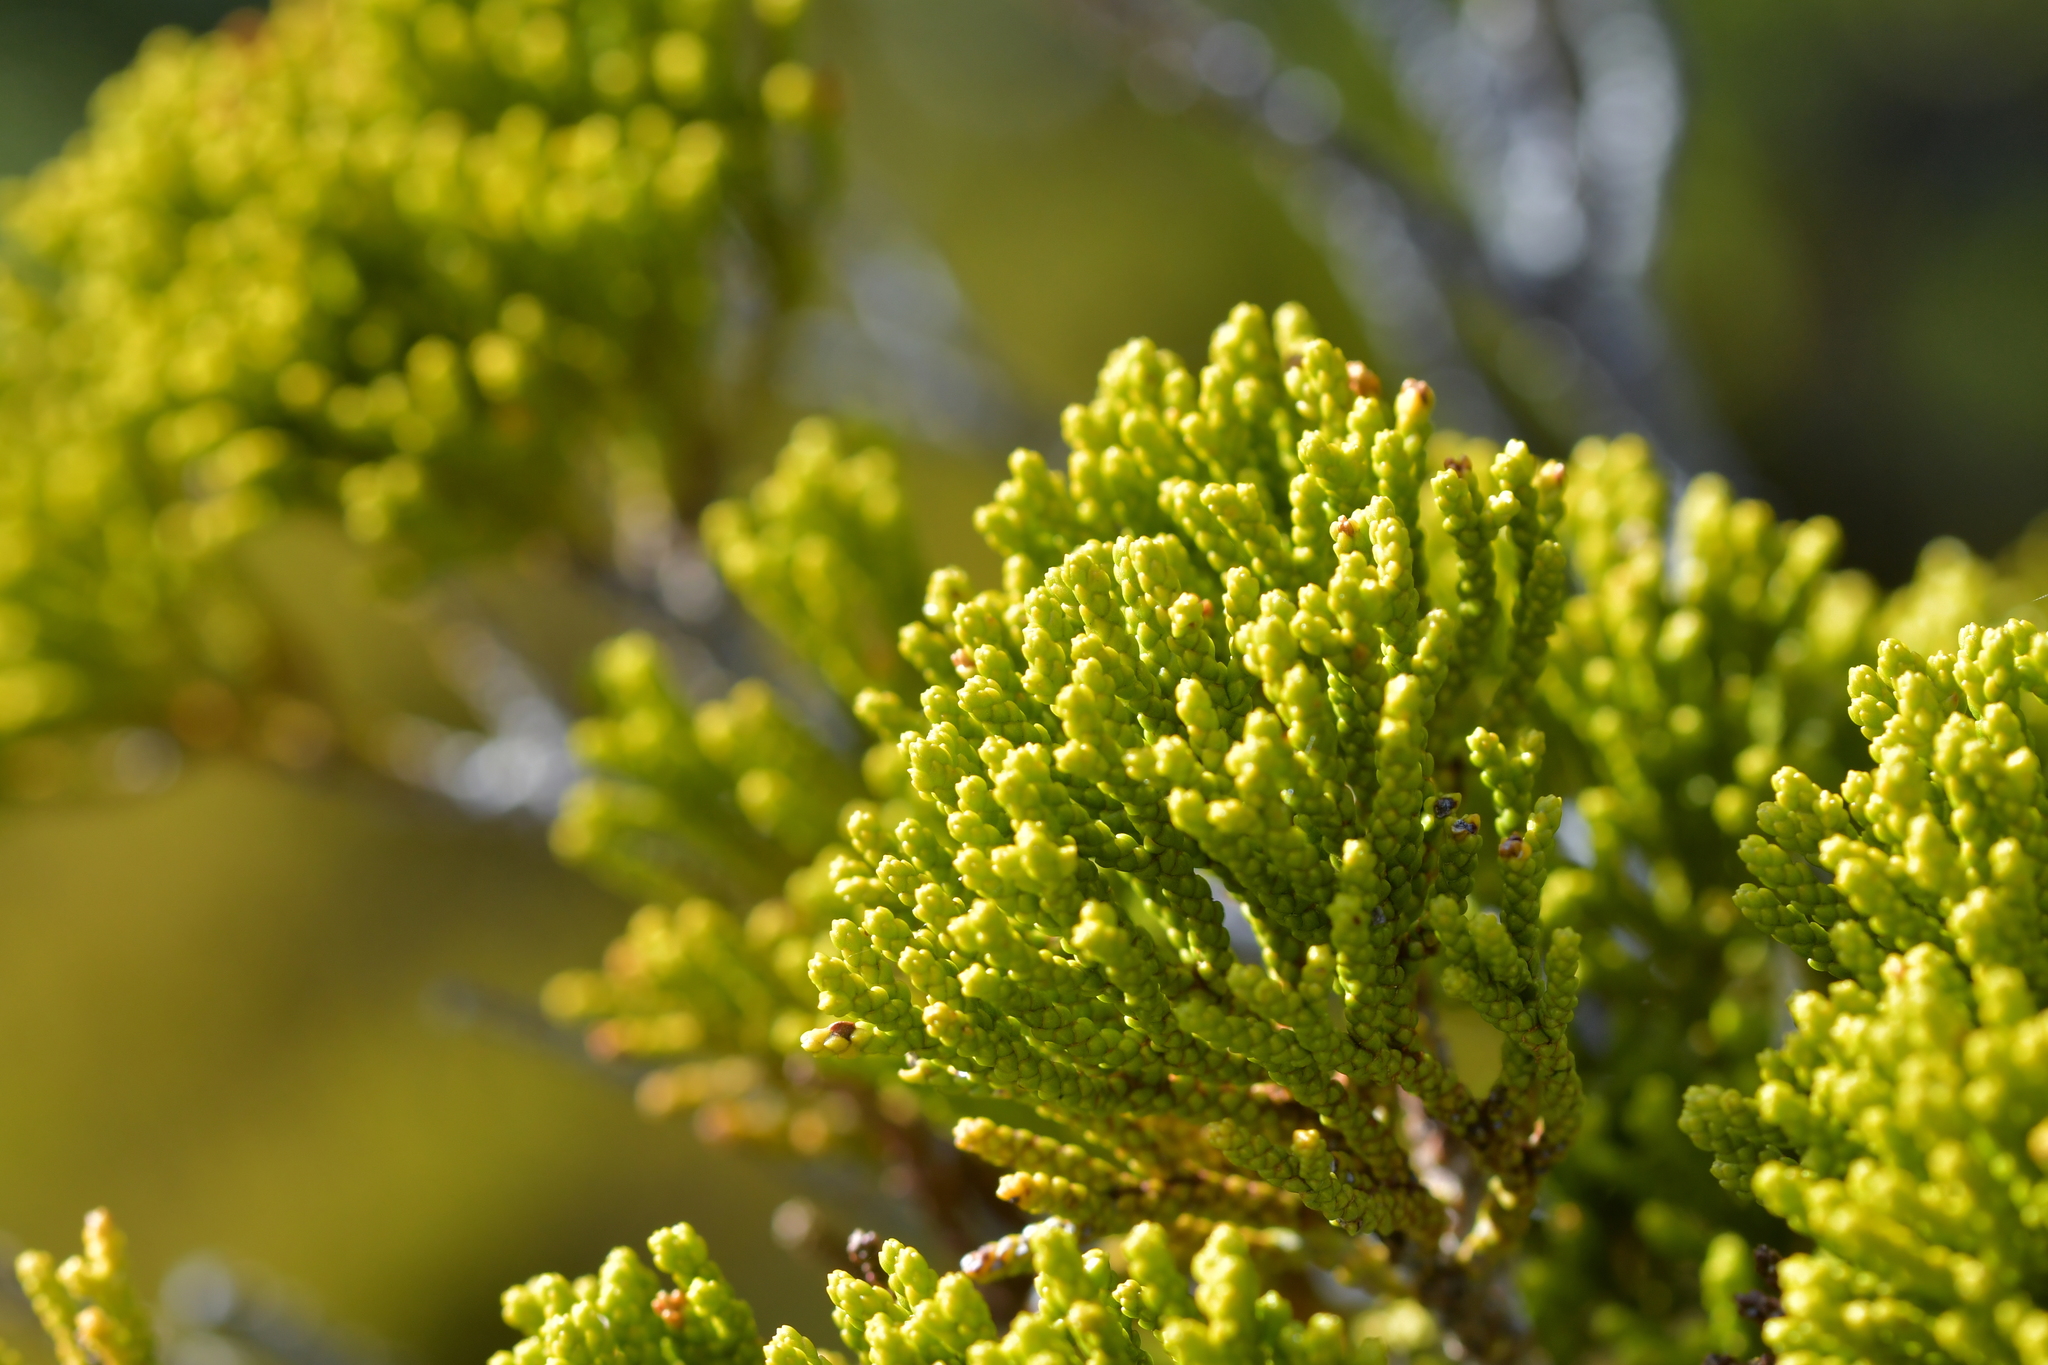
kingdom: Plantae
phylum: Tracheophyta
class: Pinopsida
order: Pinales
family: Podocarpaceae
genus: Halocarpus
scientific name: Halocarpus biformis
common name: Alpine tarwood
